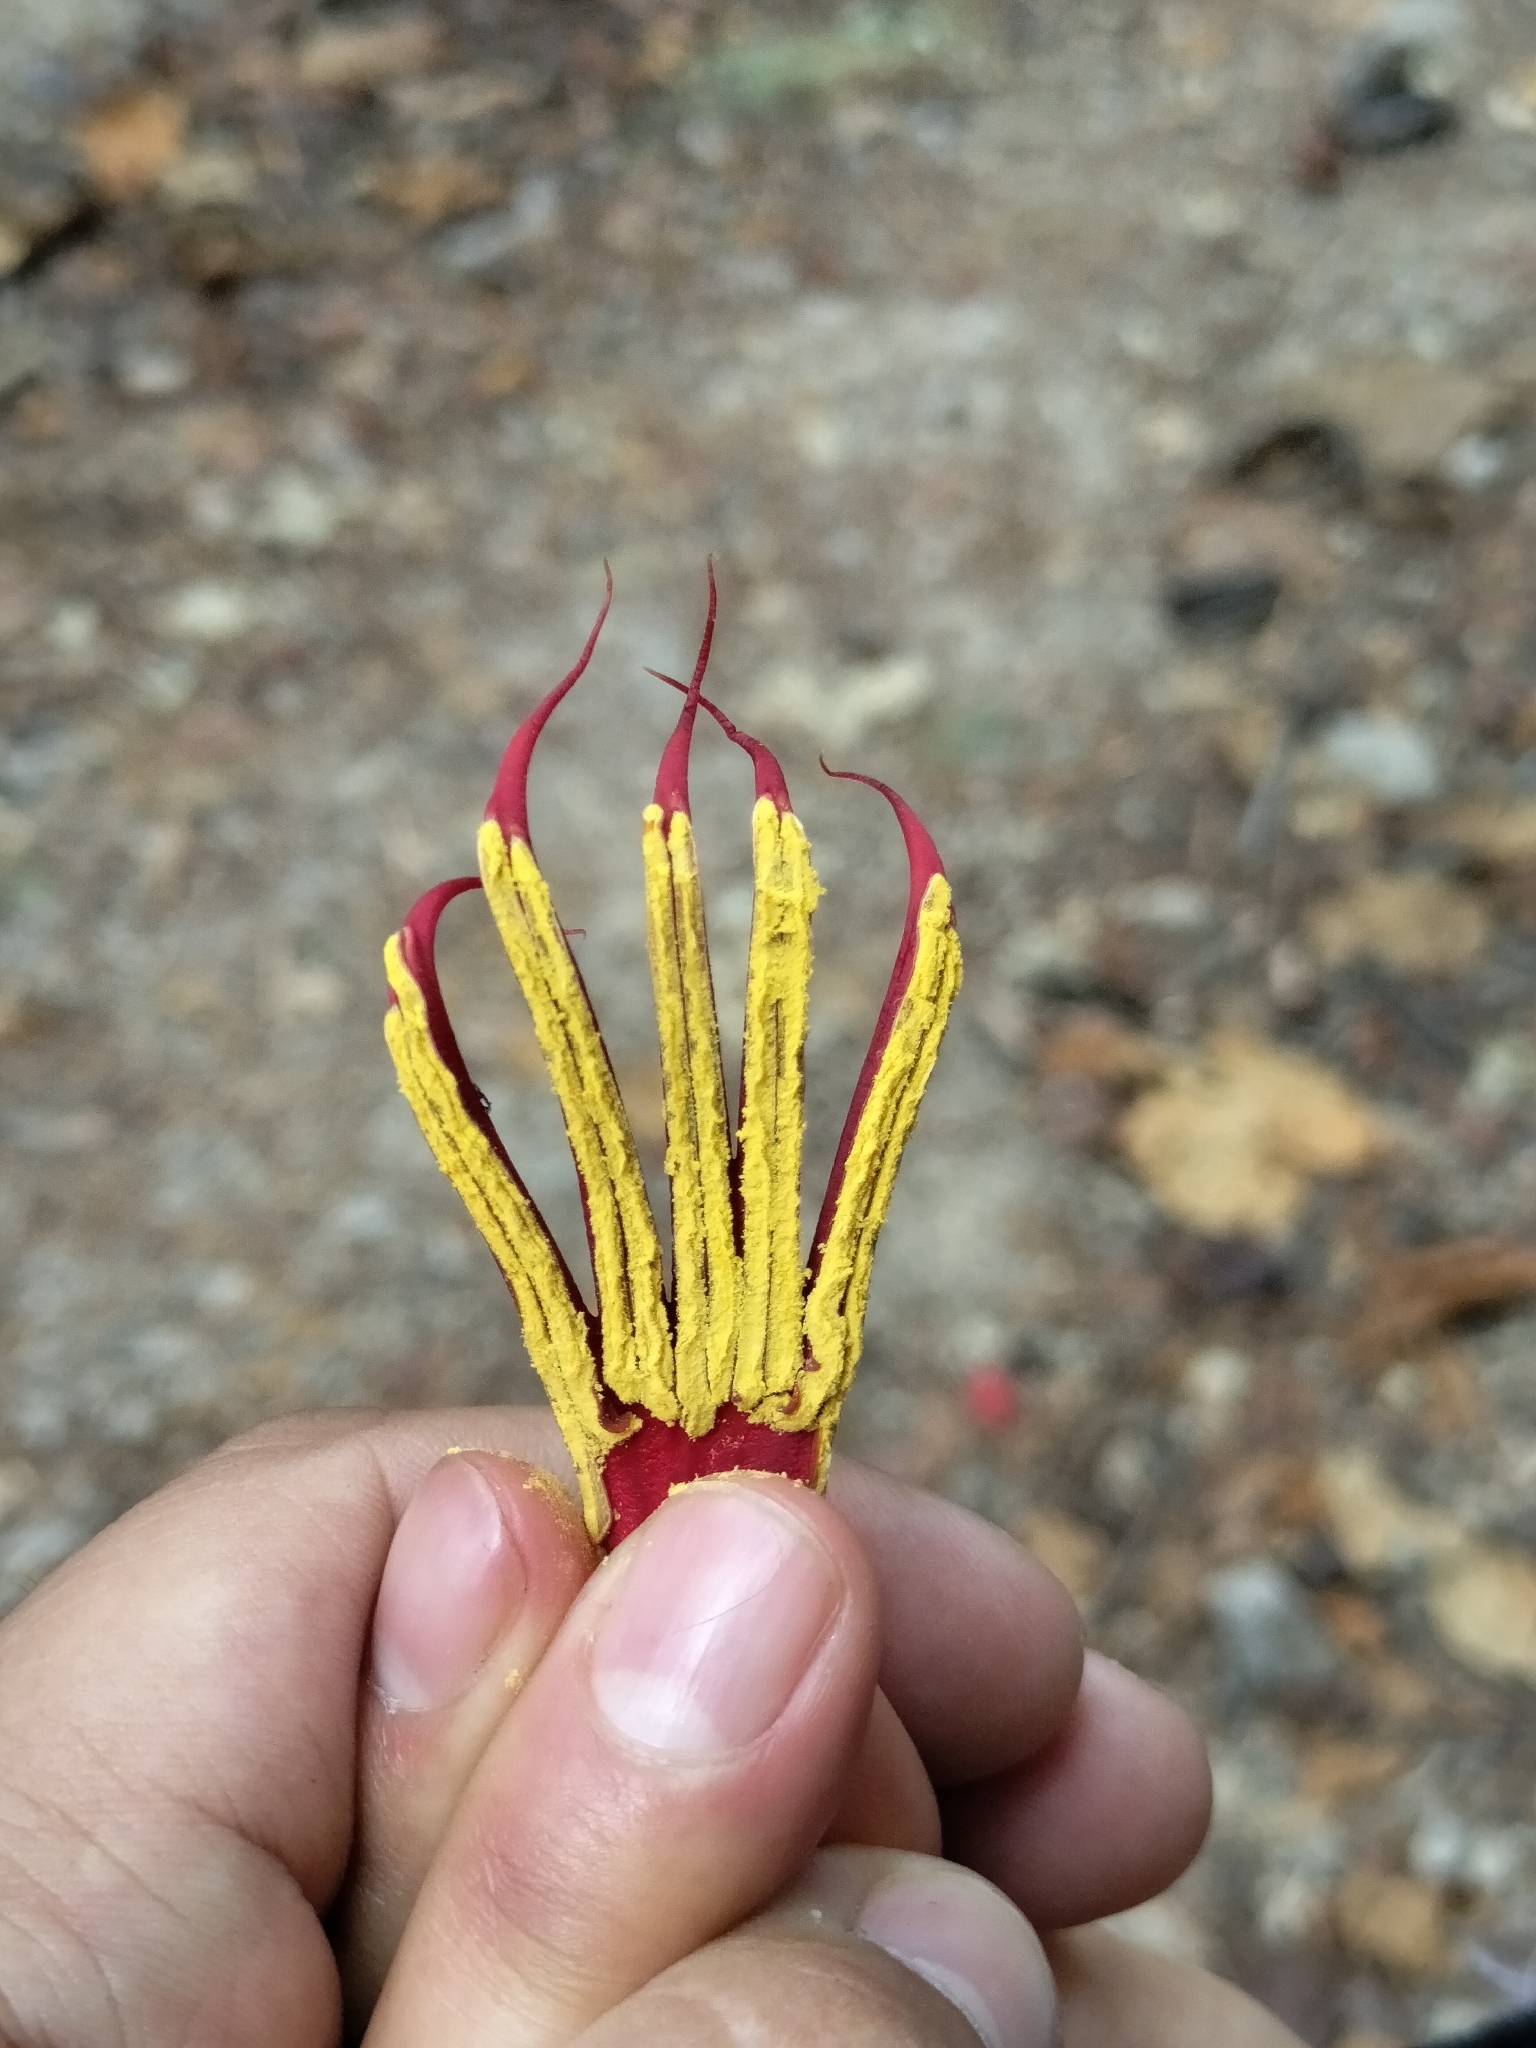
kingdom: Plantae
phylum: Tracheophyta
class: Magnoliopsida
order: Malvales
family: Malvaceae
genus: Chiranthodendron
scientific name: Chiranthodendron pentadactylon
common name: Mexican-hat-plant
